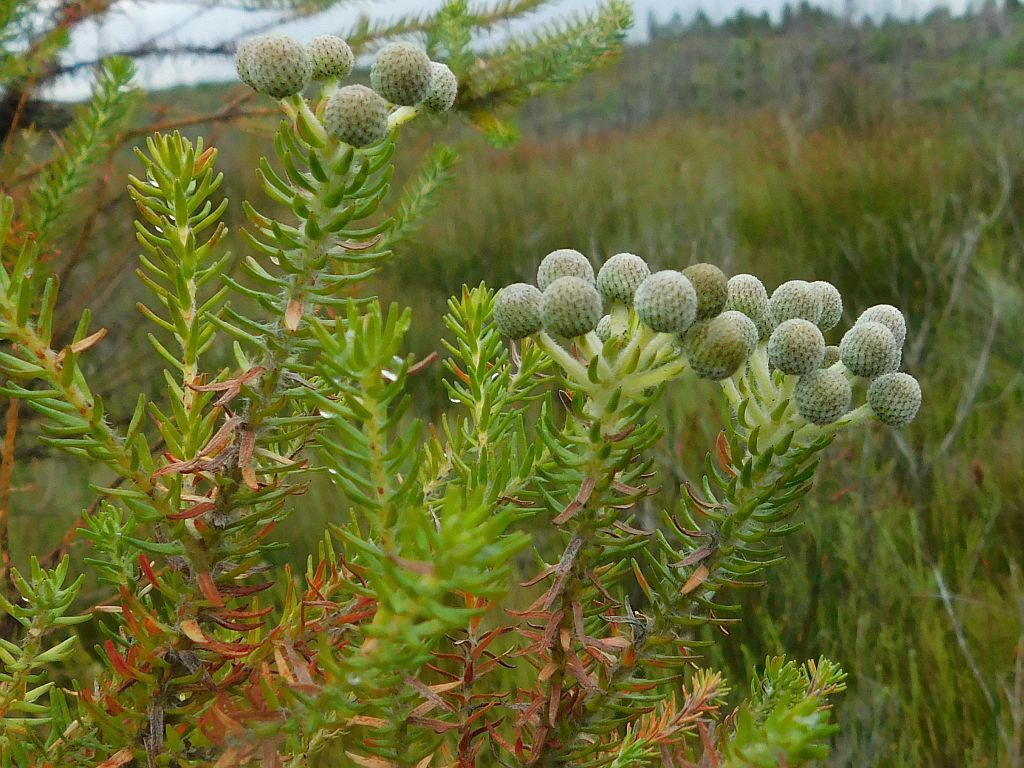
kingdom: Plantae
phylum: Tracheophyta
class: Magnoliopsida
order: Bruniales
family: Bruniaceae
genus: Berzelia
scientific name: Berzelia intermedia
